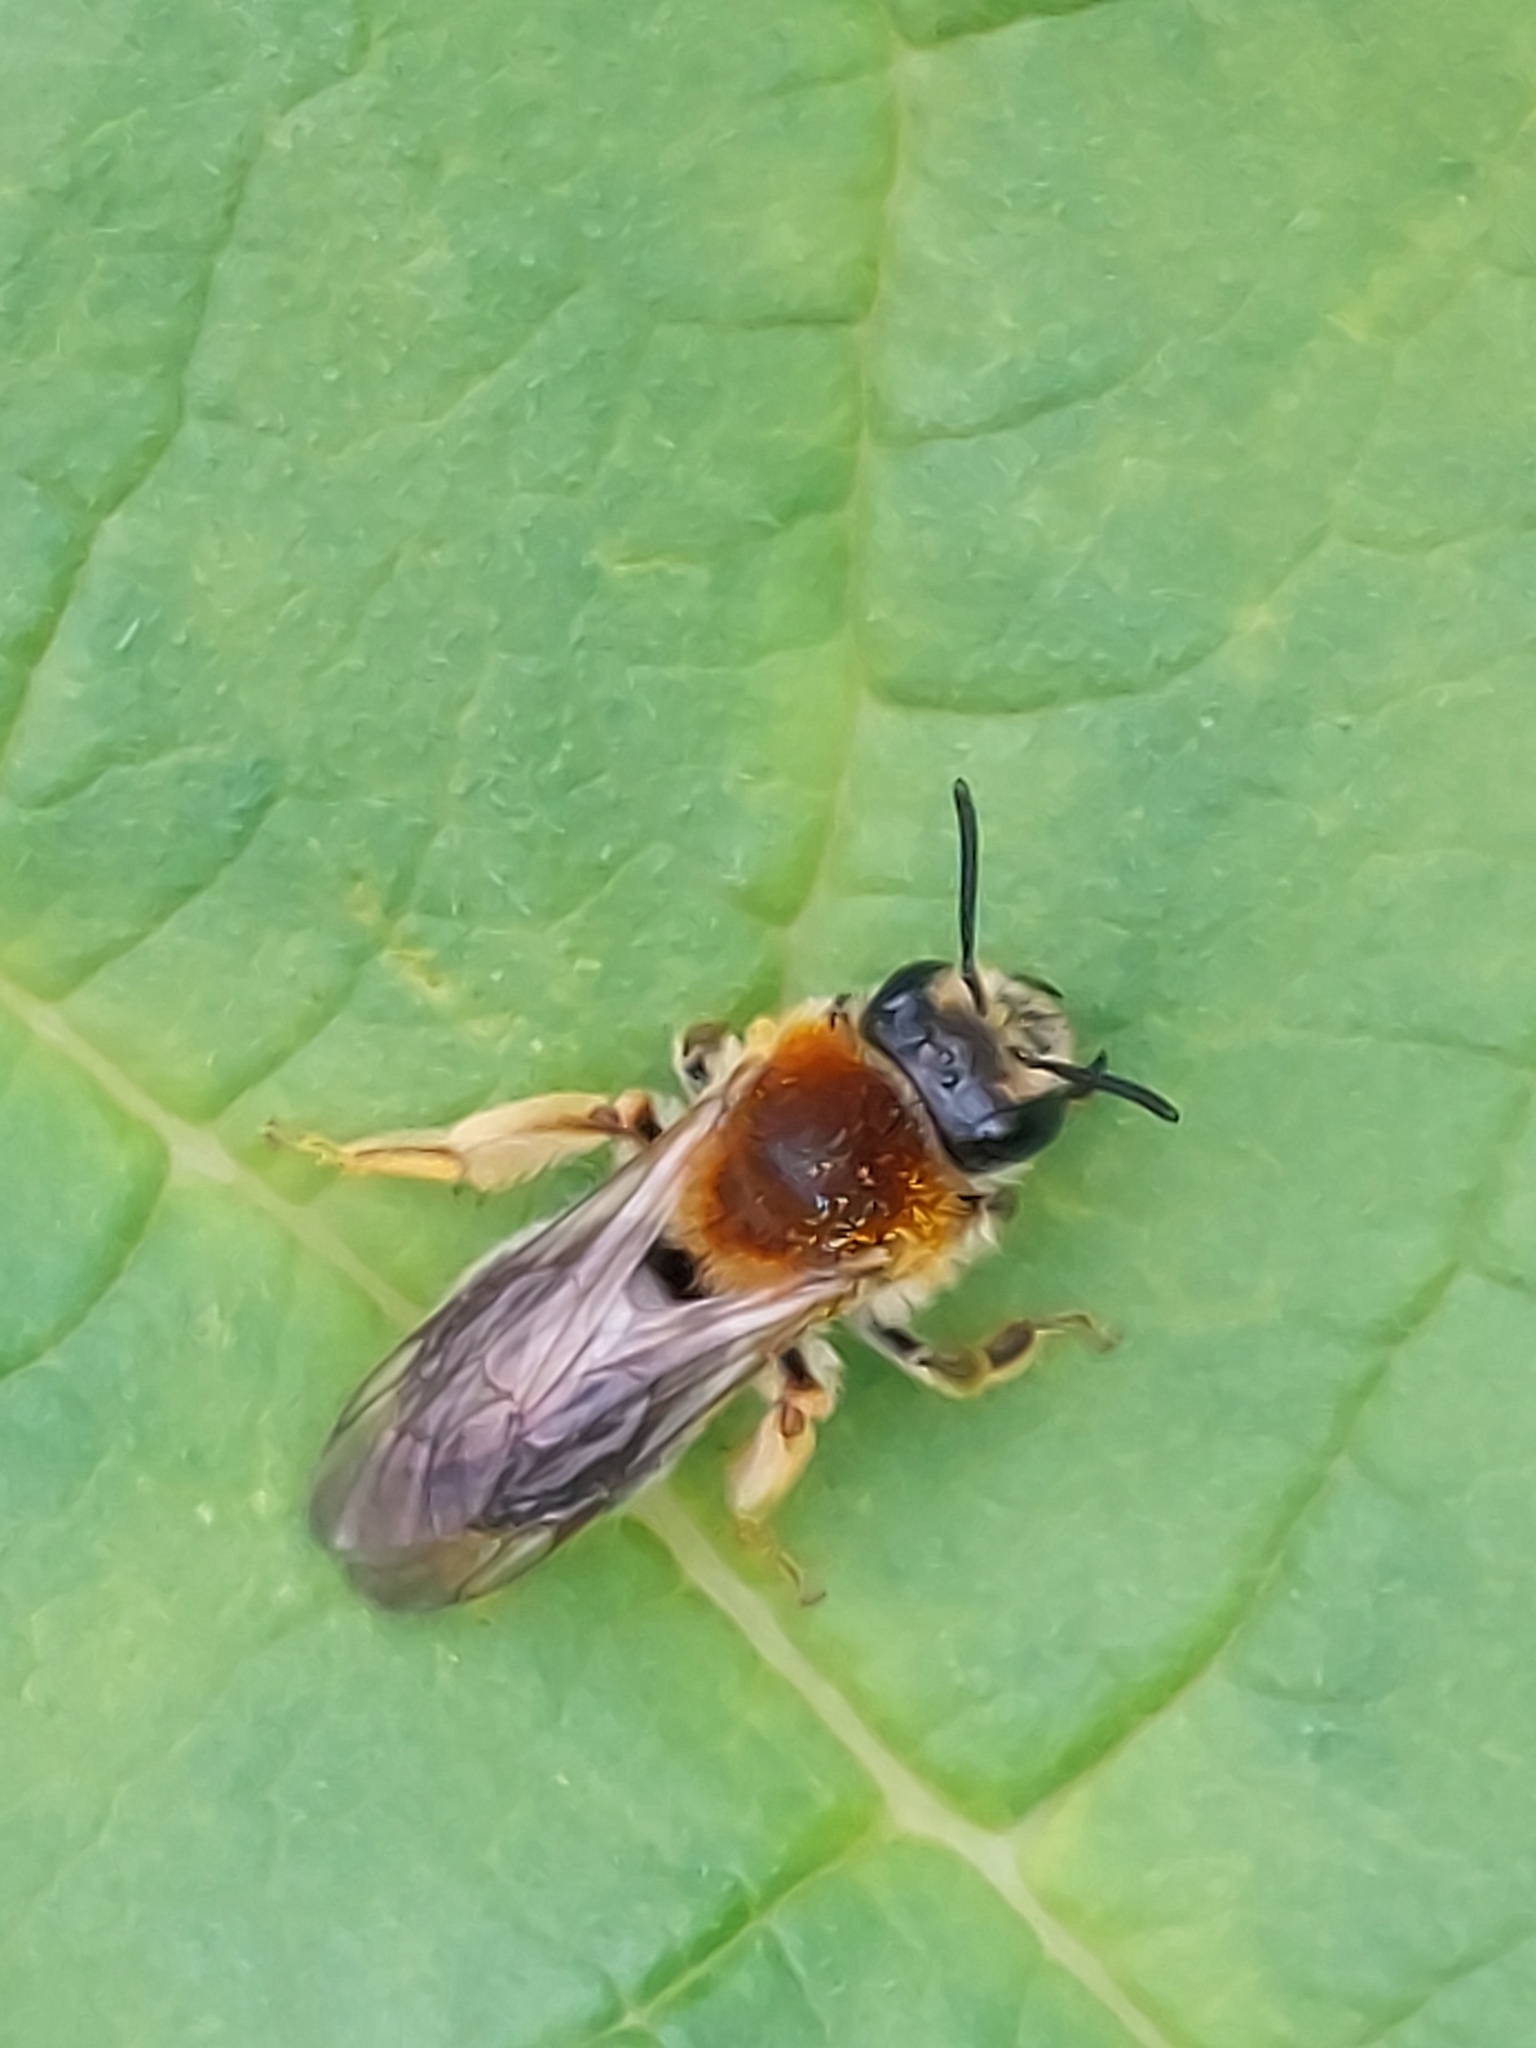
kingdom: Animalia
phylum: Arthropoda
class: Insecta
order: Hymenoptera
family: Andrenidae
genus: Andrena
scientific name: Andrena haemorrhoa
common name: Early mining bee
